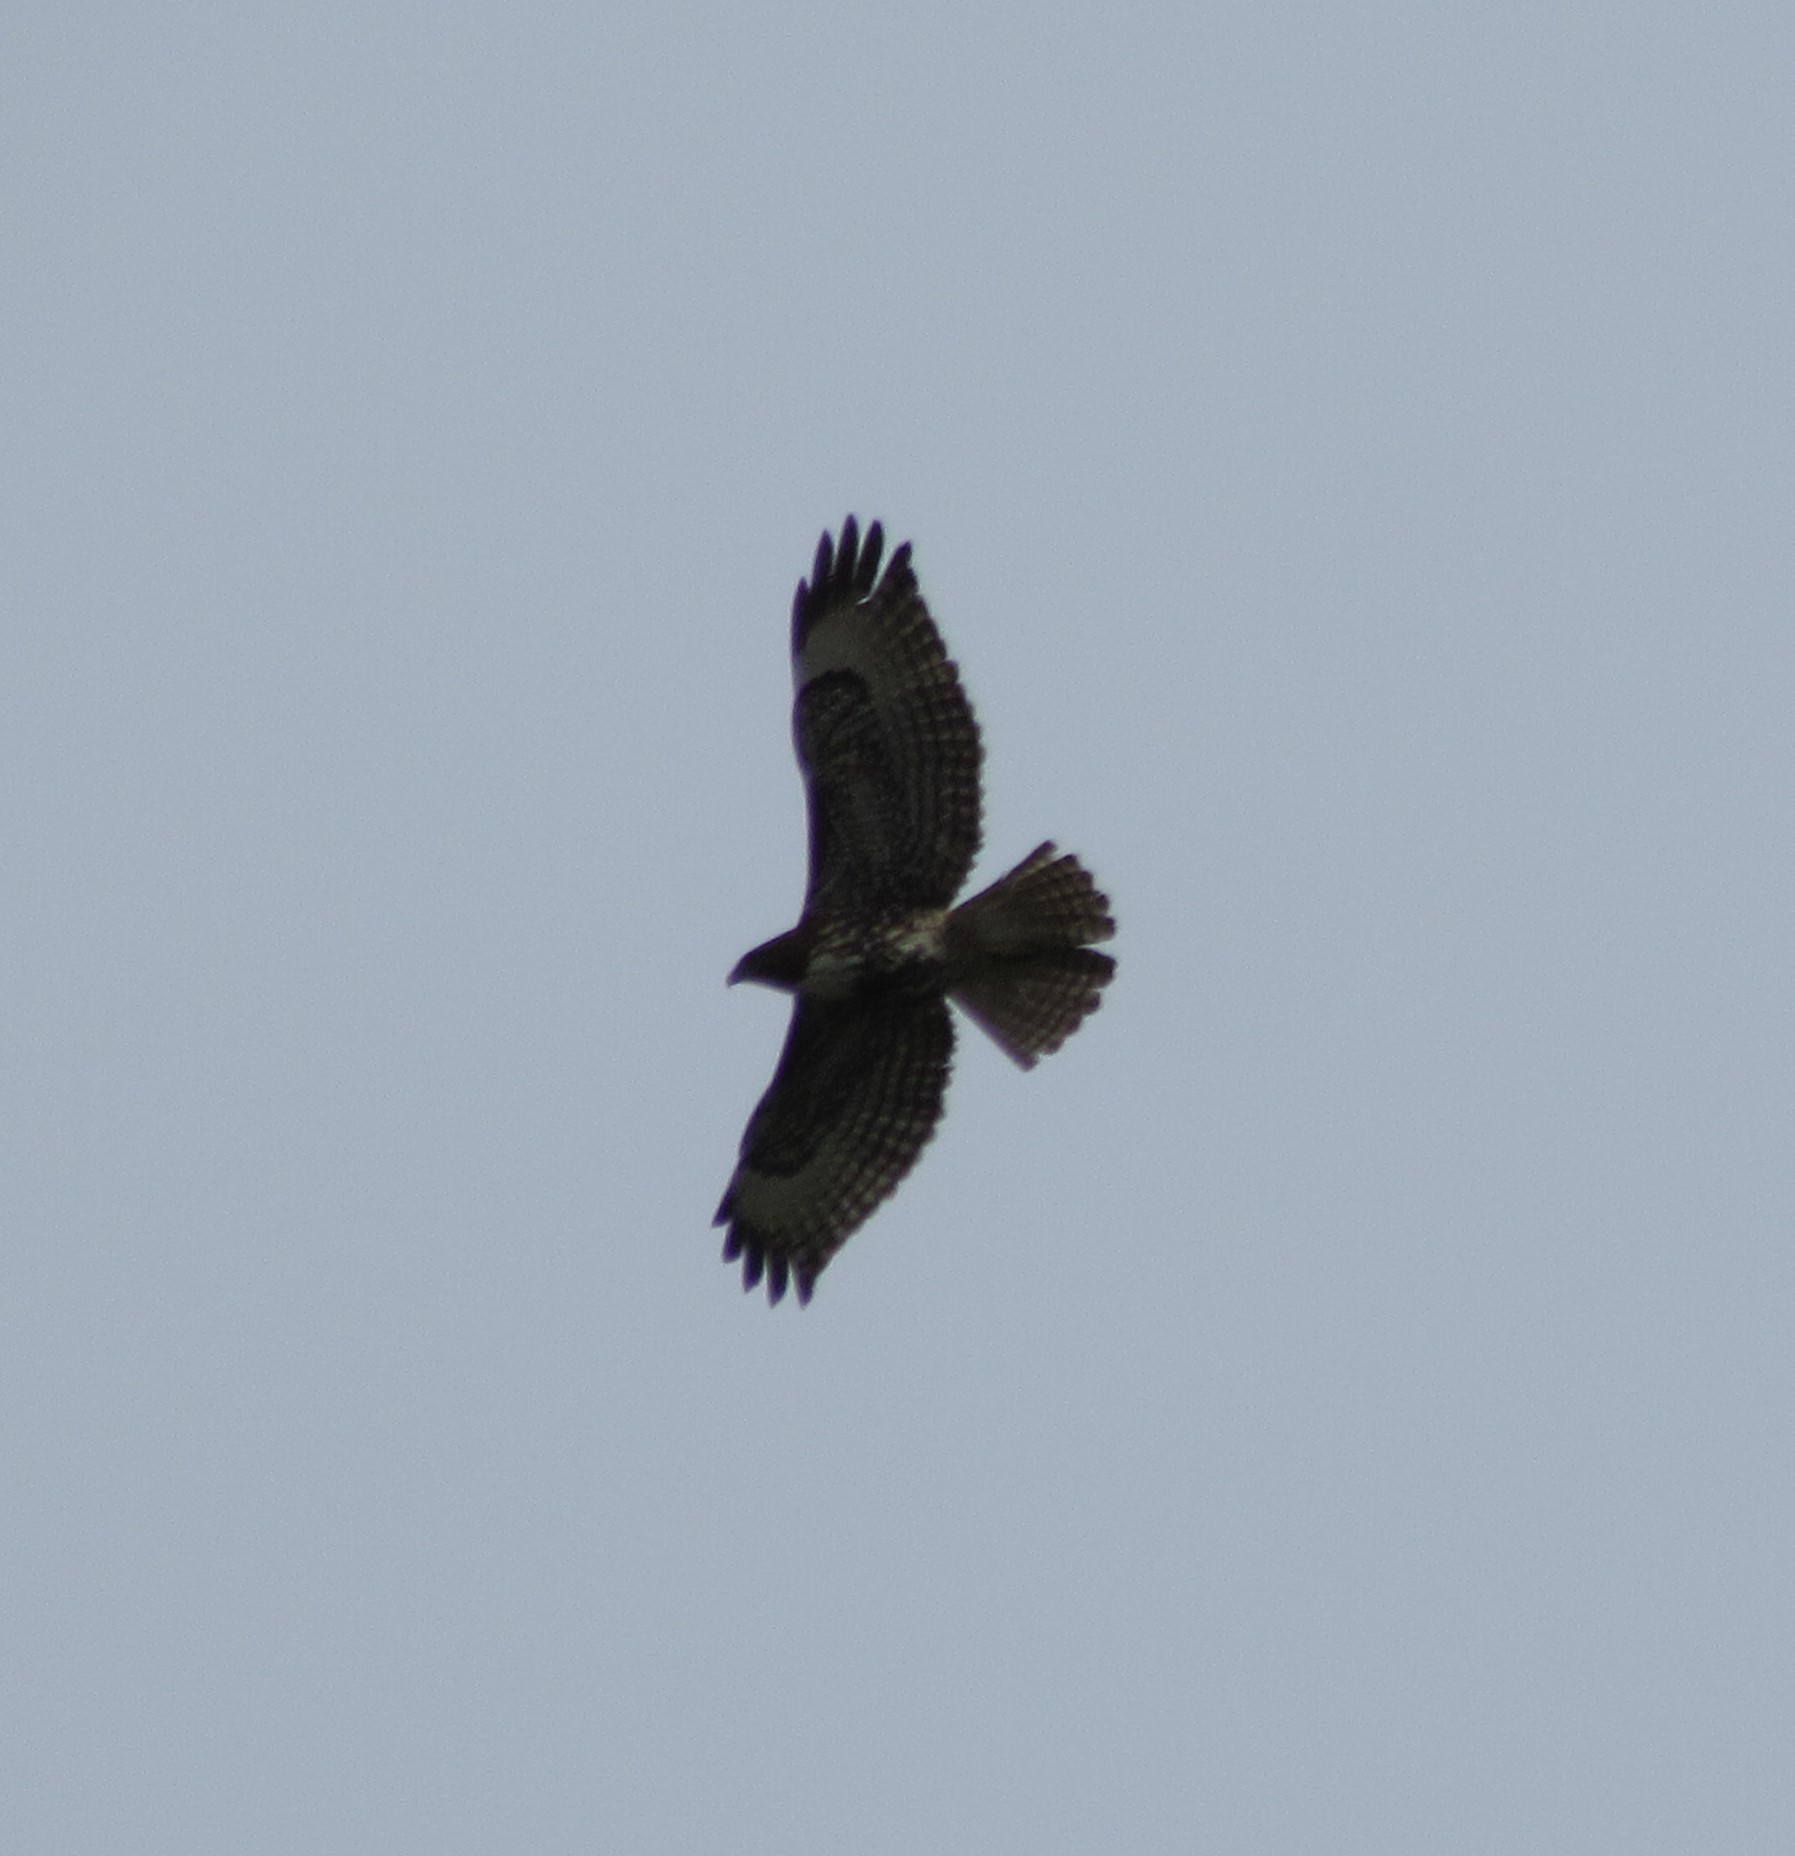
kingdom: Animalia
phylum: Chordata
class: Aves
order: Accipitriformes
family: Accipitridae
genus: Buteo
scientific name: Buteo jamaicensis
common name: Red-tailed hawk
